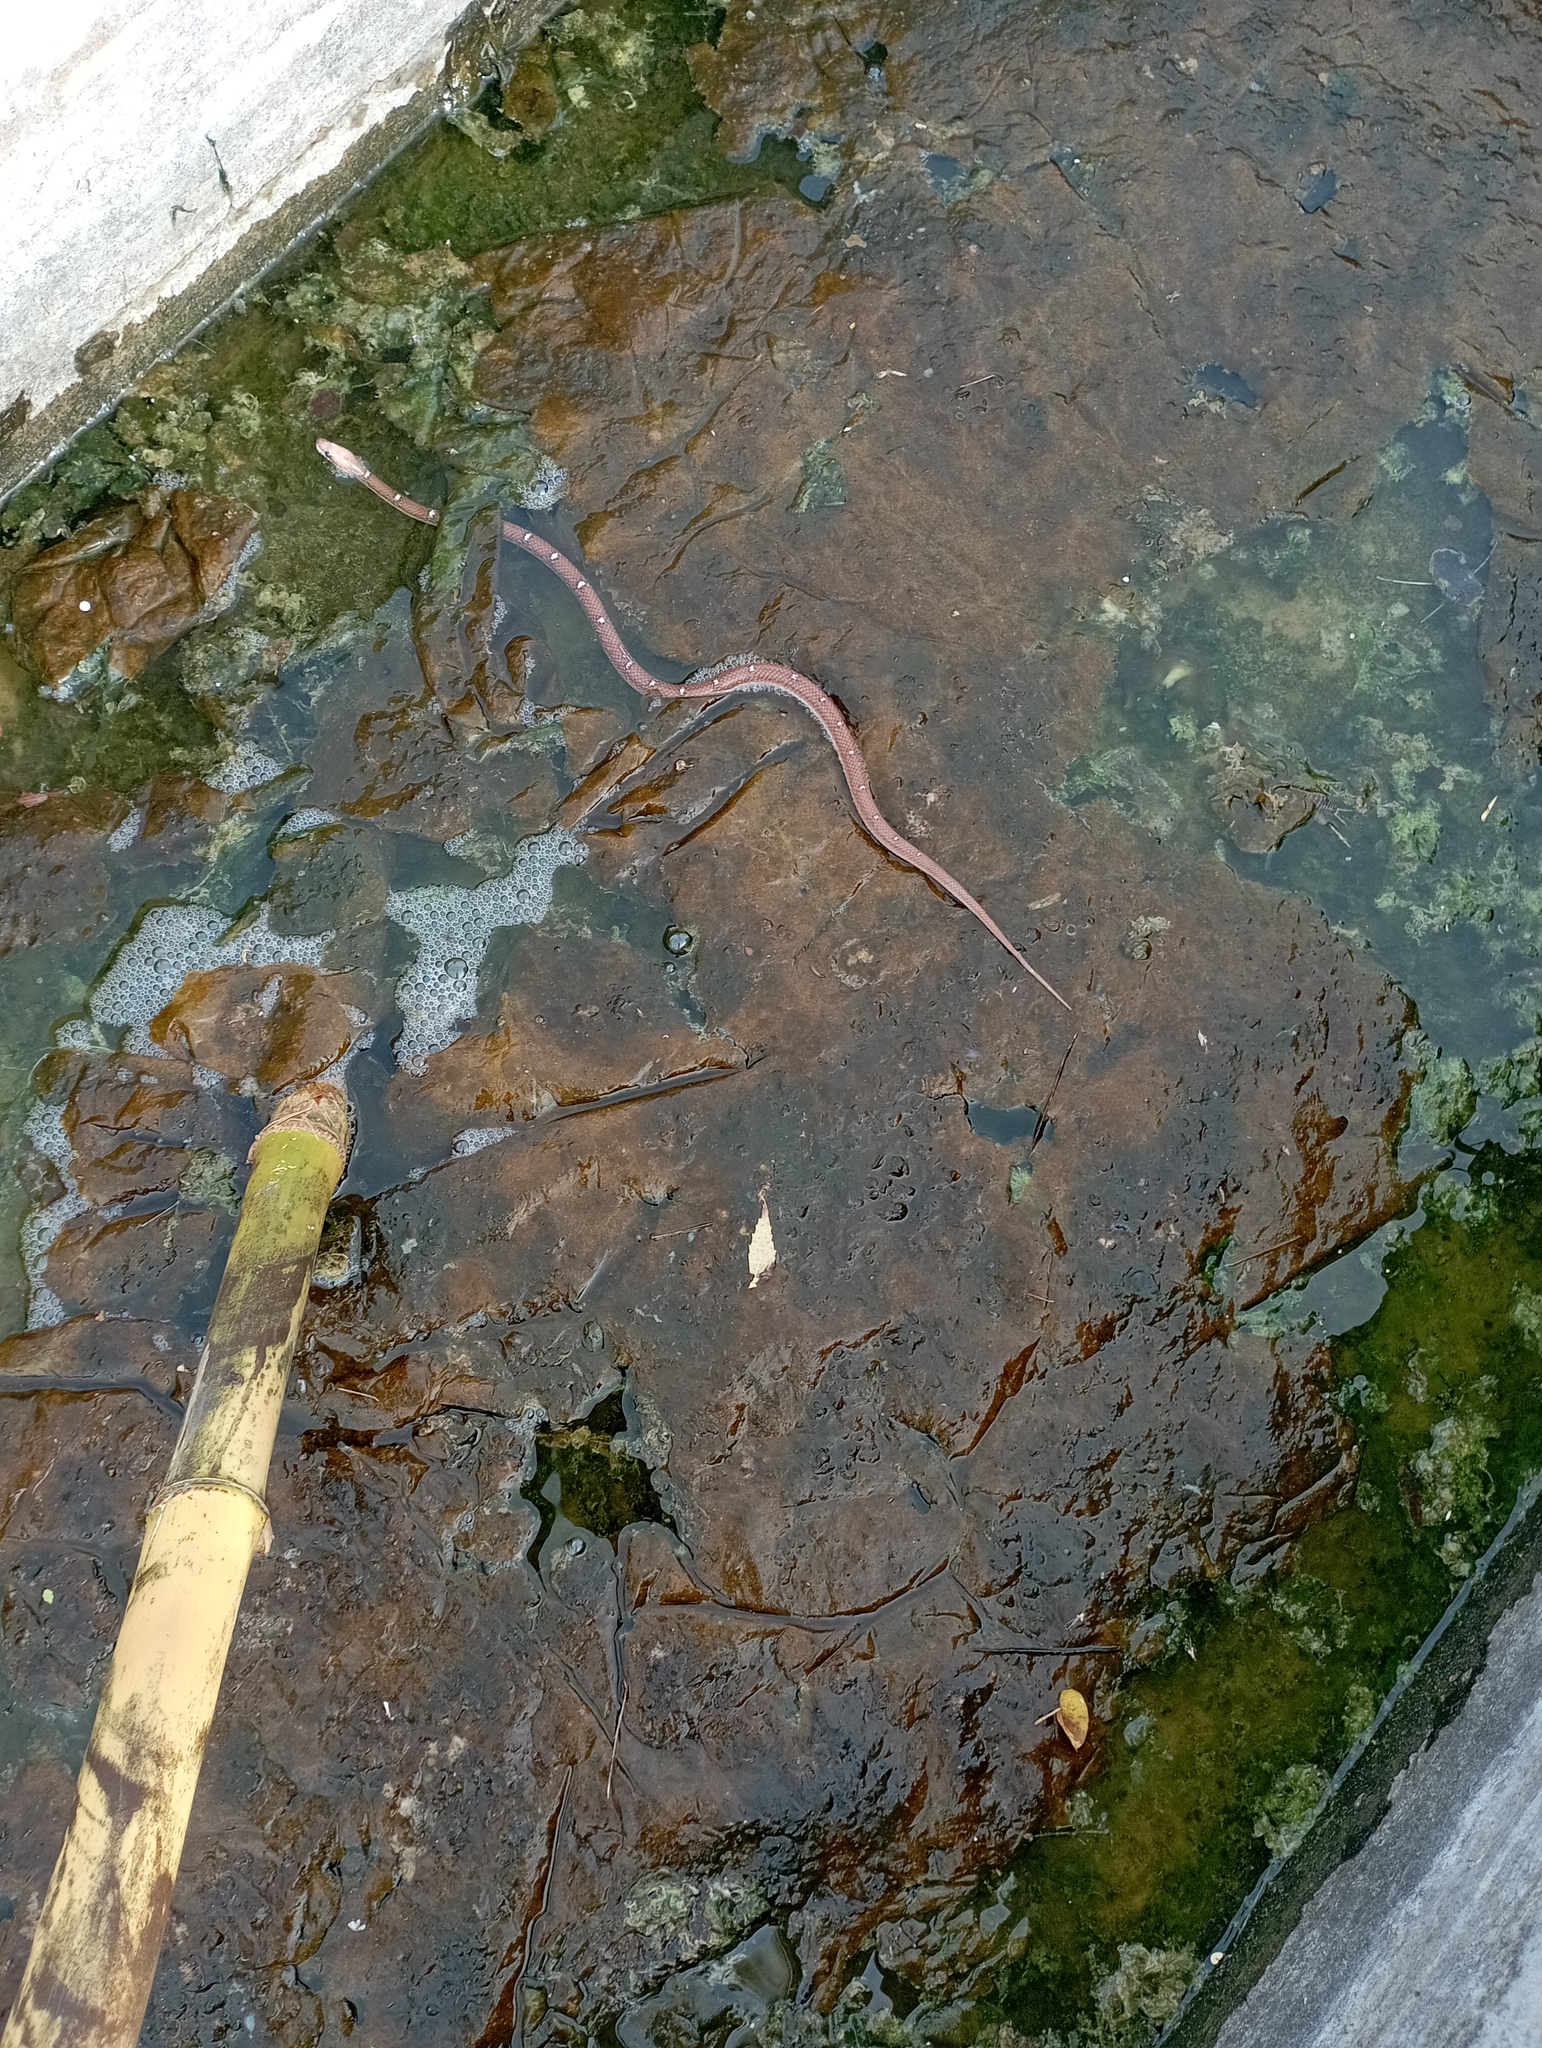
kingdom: Animalia
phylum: Chordata
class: Squamata
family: Colubridae
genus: Lycodon
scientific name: Lycodon fasciolatus
